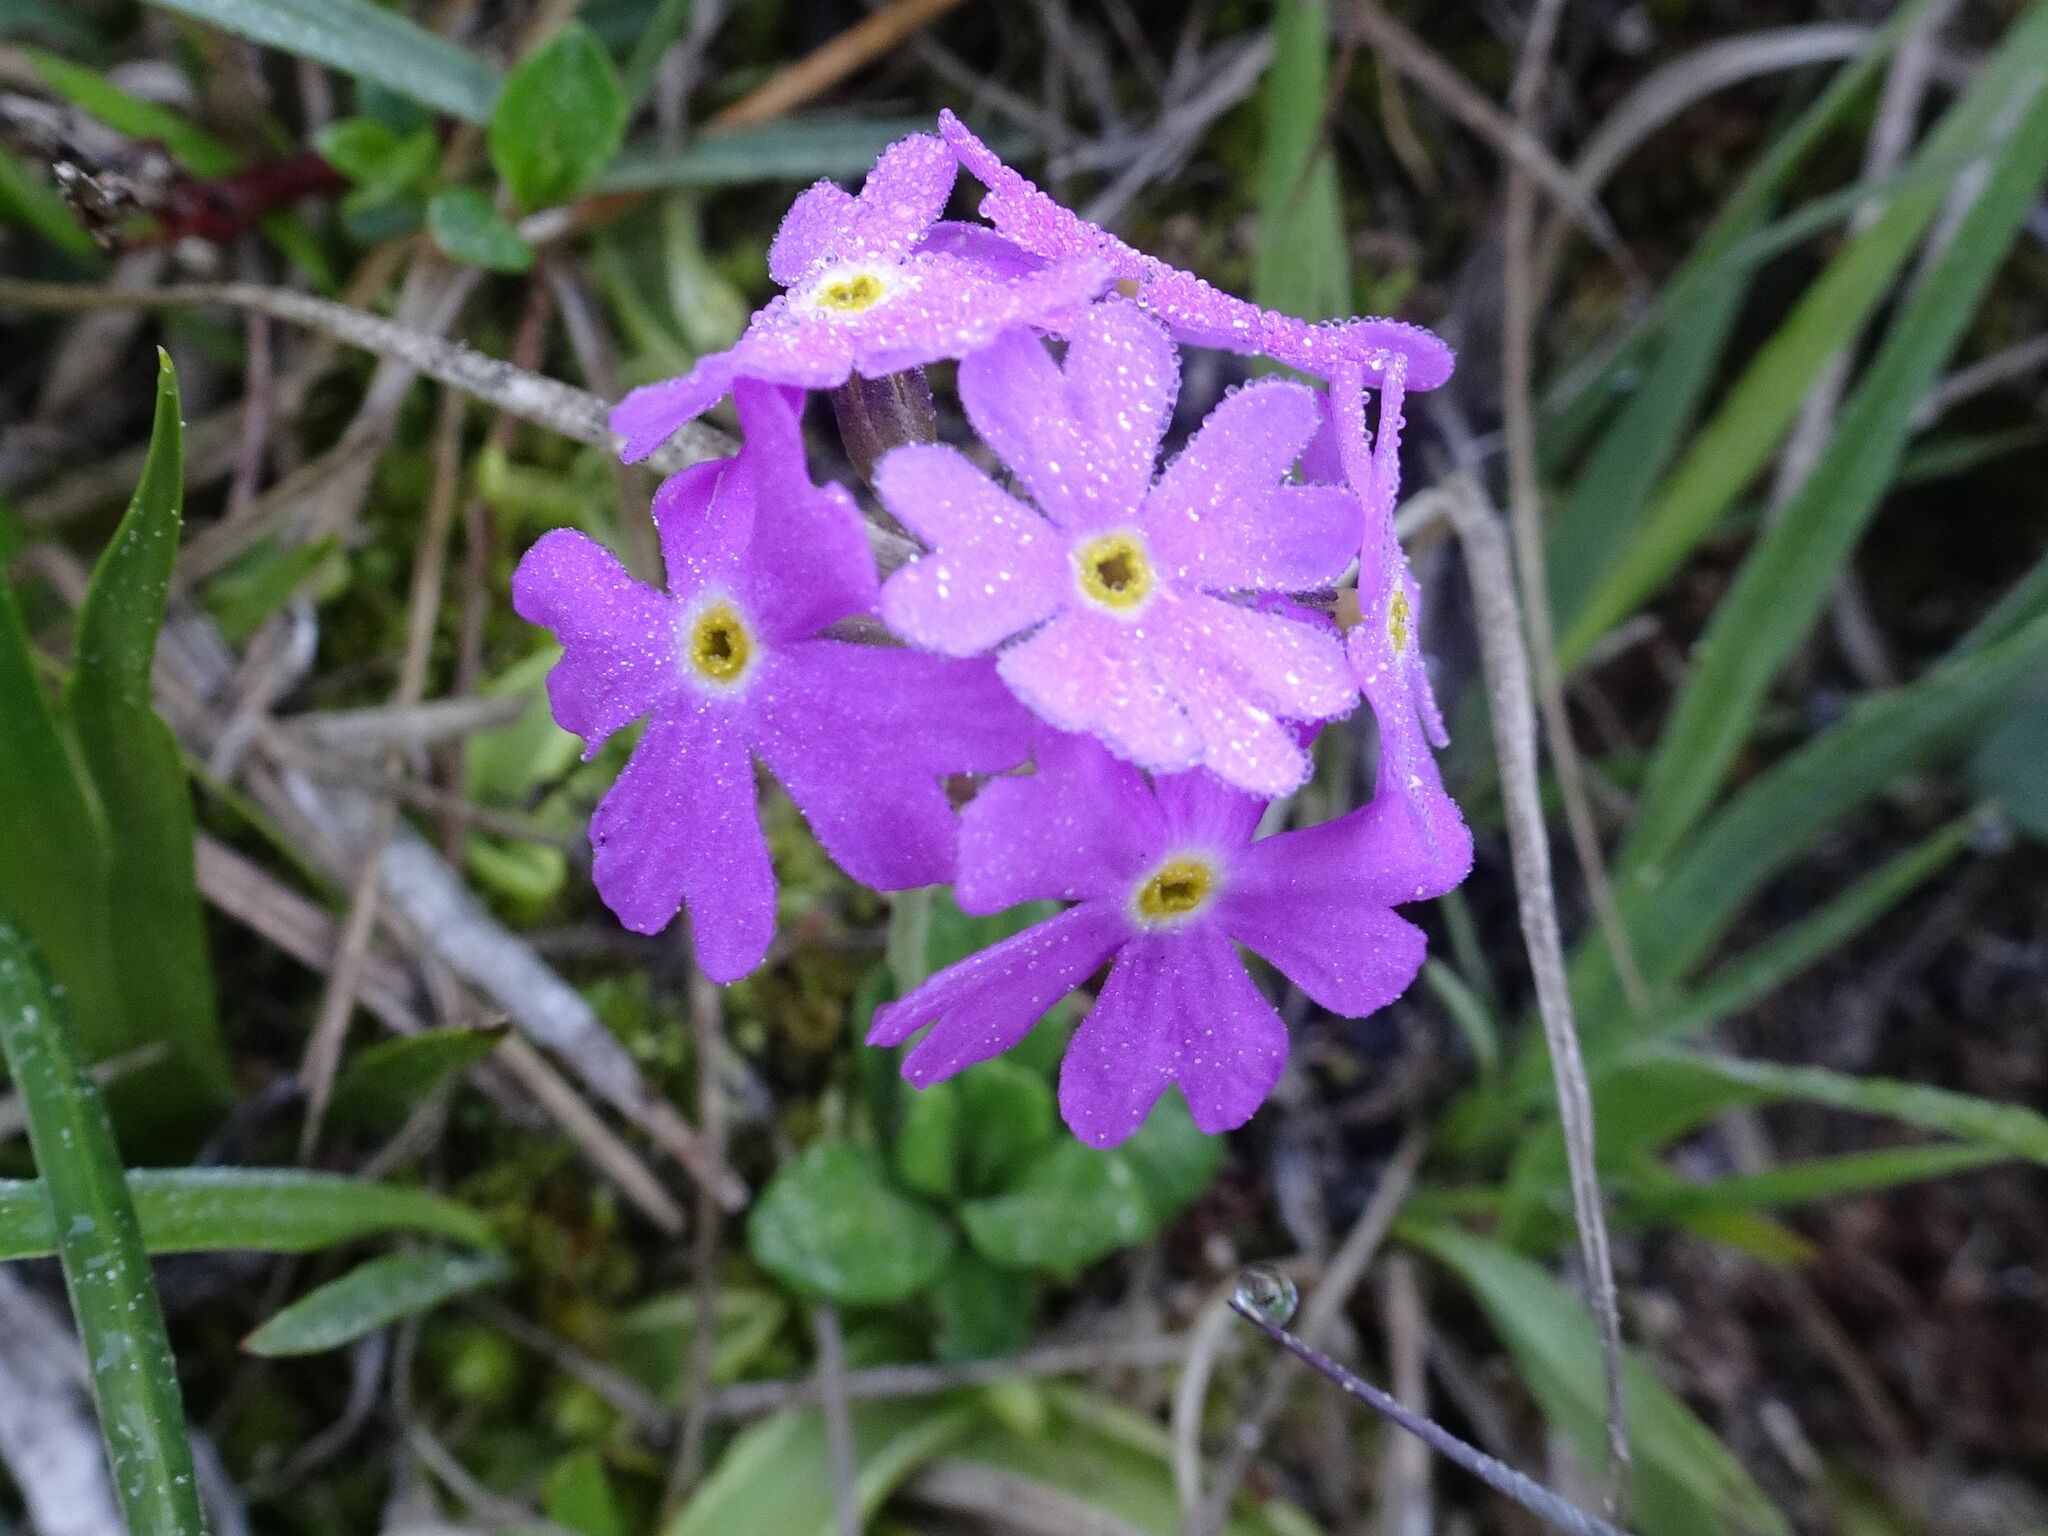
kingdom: Plantae
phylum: Tracheophyta
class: Magnoliopsida
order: Ericales
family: Primulaceae
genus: Primula
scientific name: Primula farinosa
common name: Bird's-eye primrose
